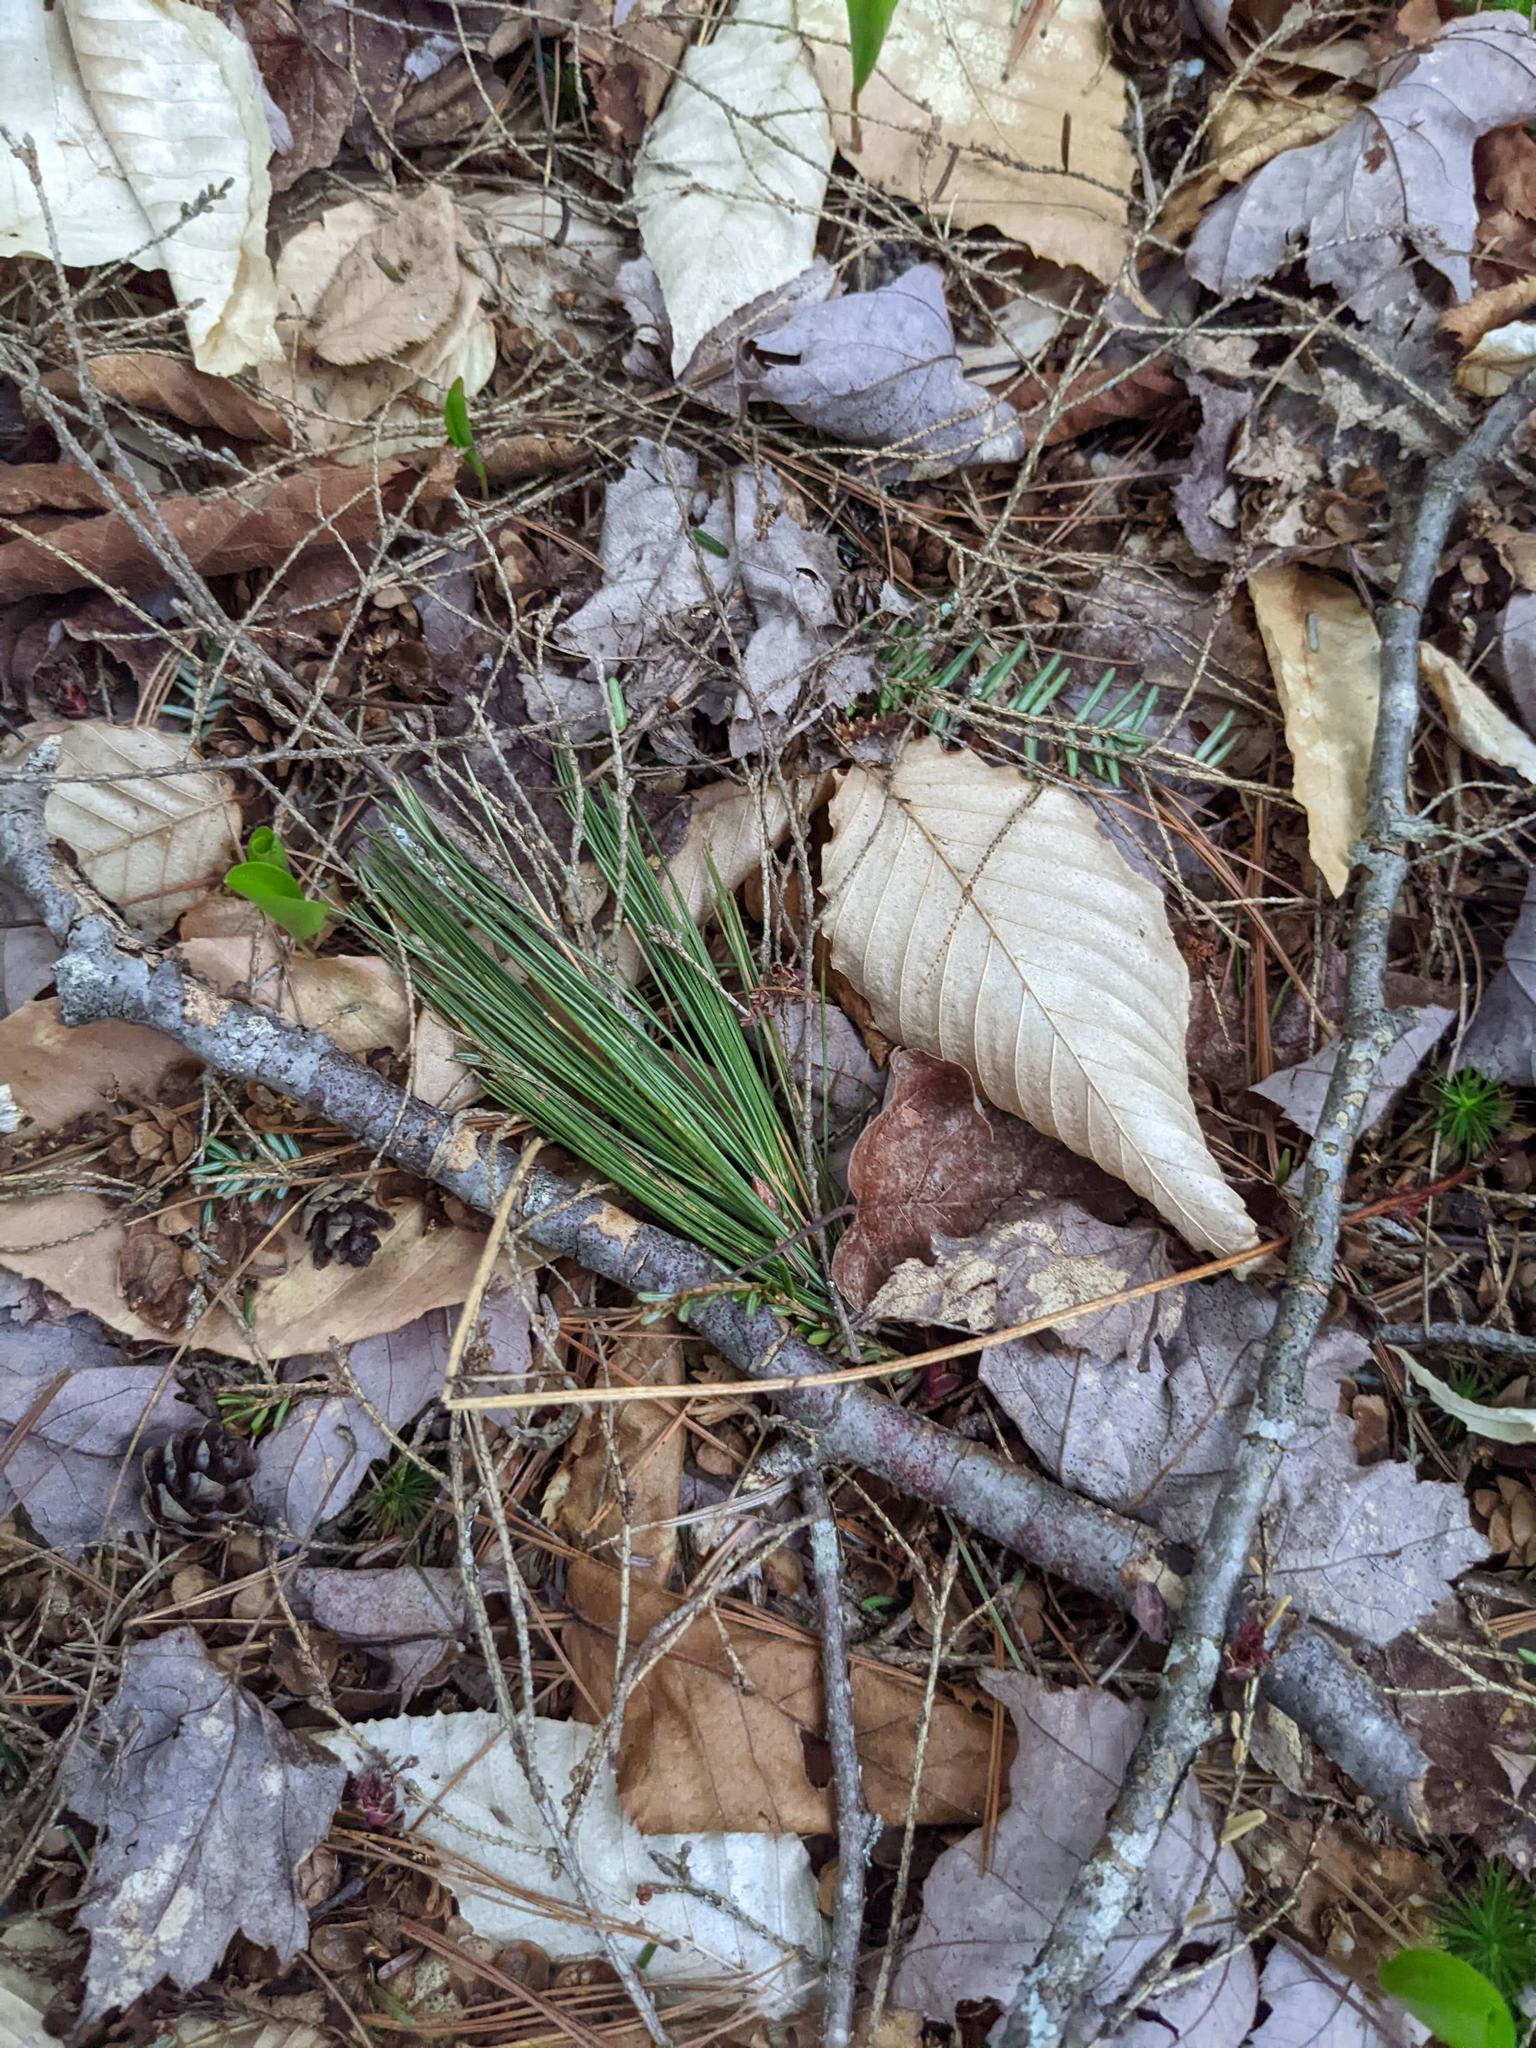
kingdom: Plantae
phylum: Tracheophyta
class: Pinopsida
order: Pinales
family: Pinaceae
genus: Pinus
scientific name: Pinus strobus
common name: Weymouth pine
